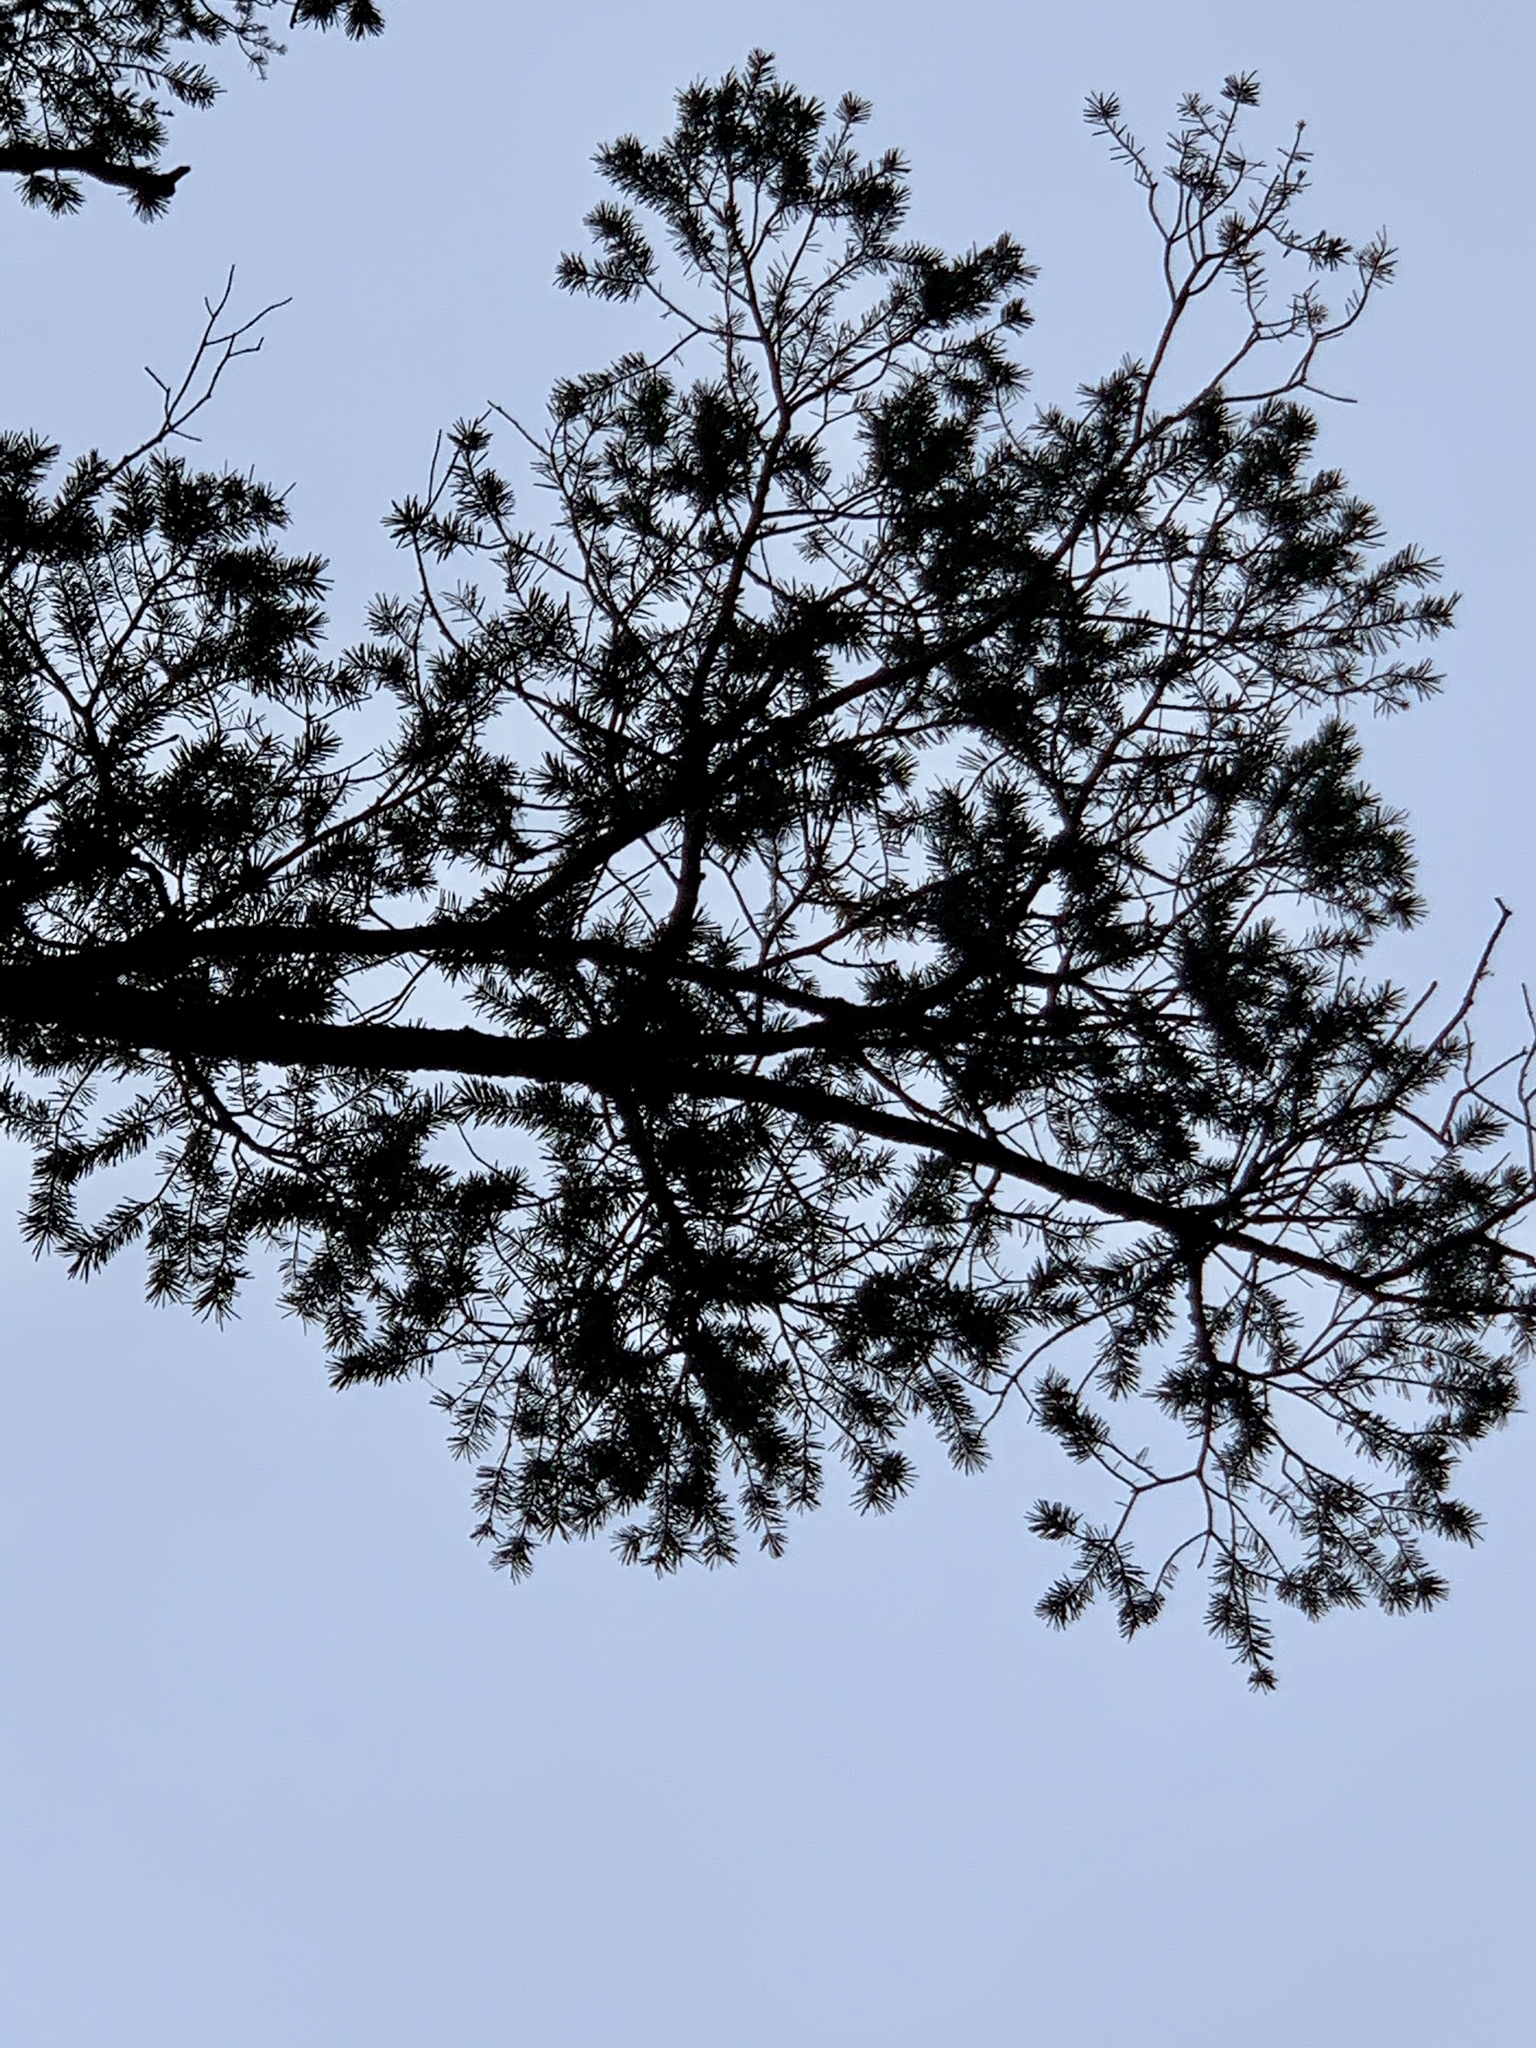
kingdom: Plantae
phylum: Tracheophyta
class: Pinopsida
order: Pinales
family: Pinaceae
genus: Pseudotsuga
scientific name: Pseudotsuga menziesii
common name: Douglas fir
